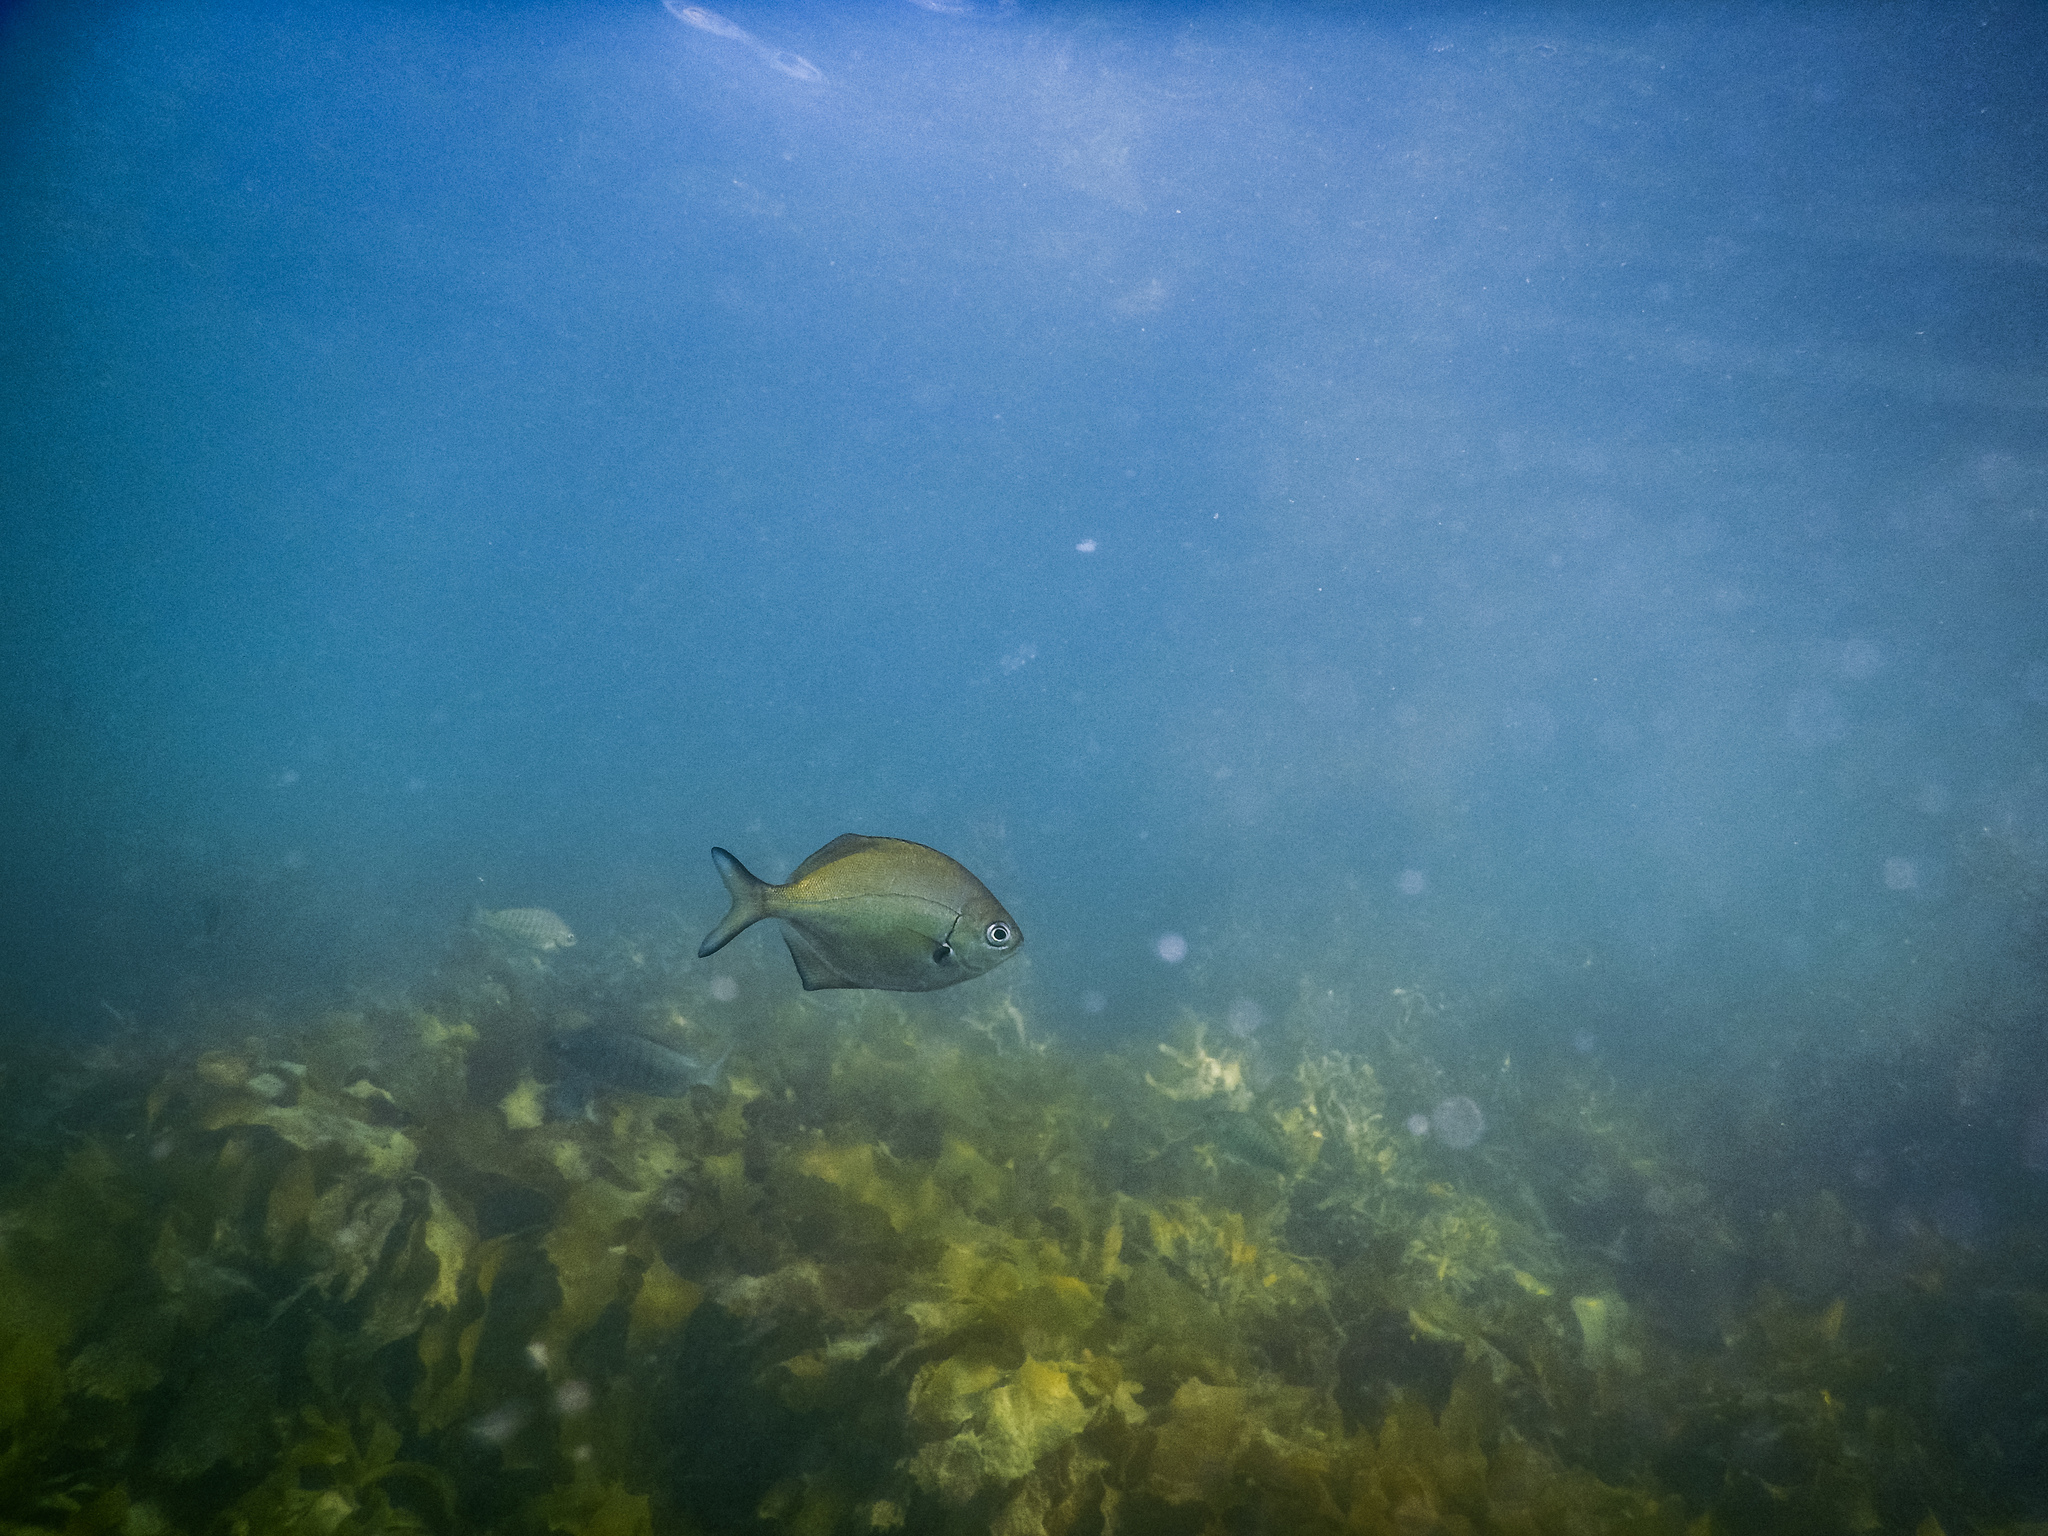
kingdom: Animalia
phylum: Chordata
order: Perciformes
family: Kyphosidae
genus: Scorpis
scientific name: Scorpis lineolata
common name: Sweep
